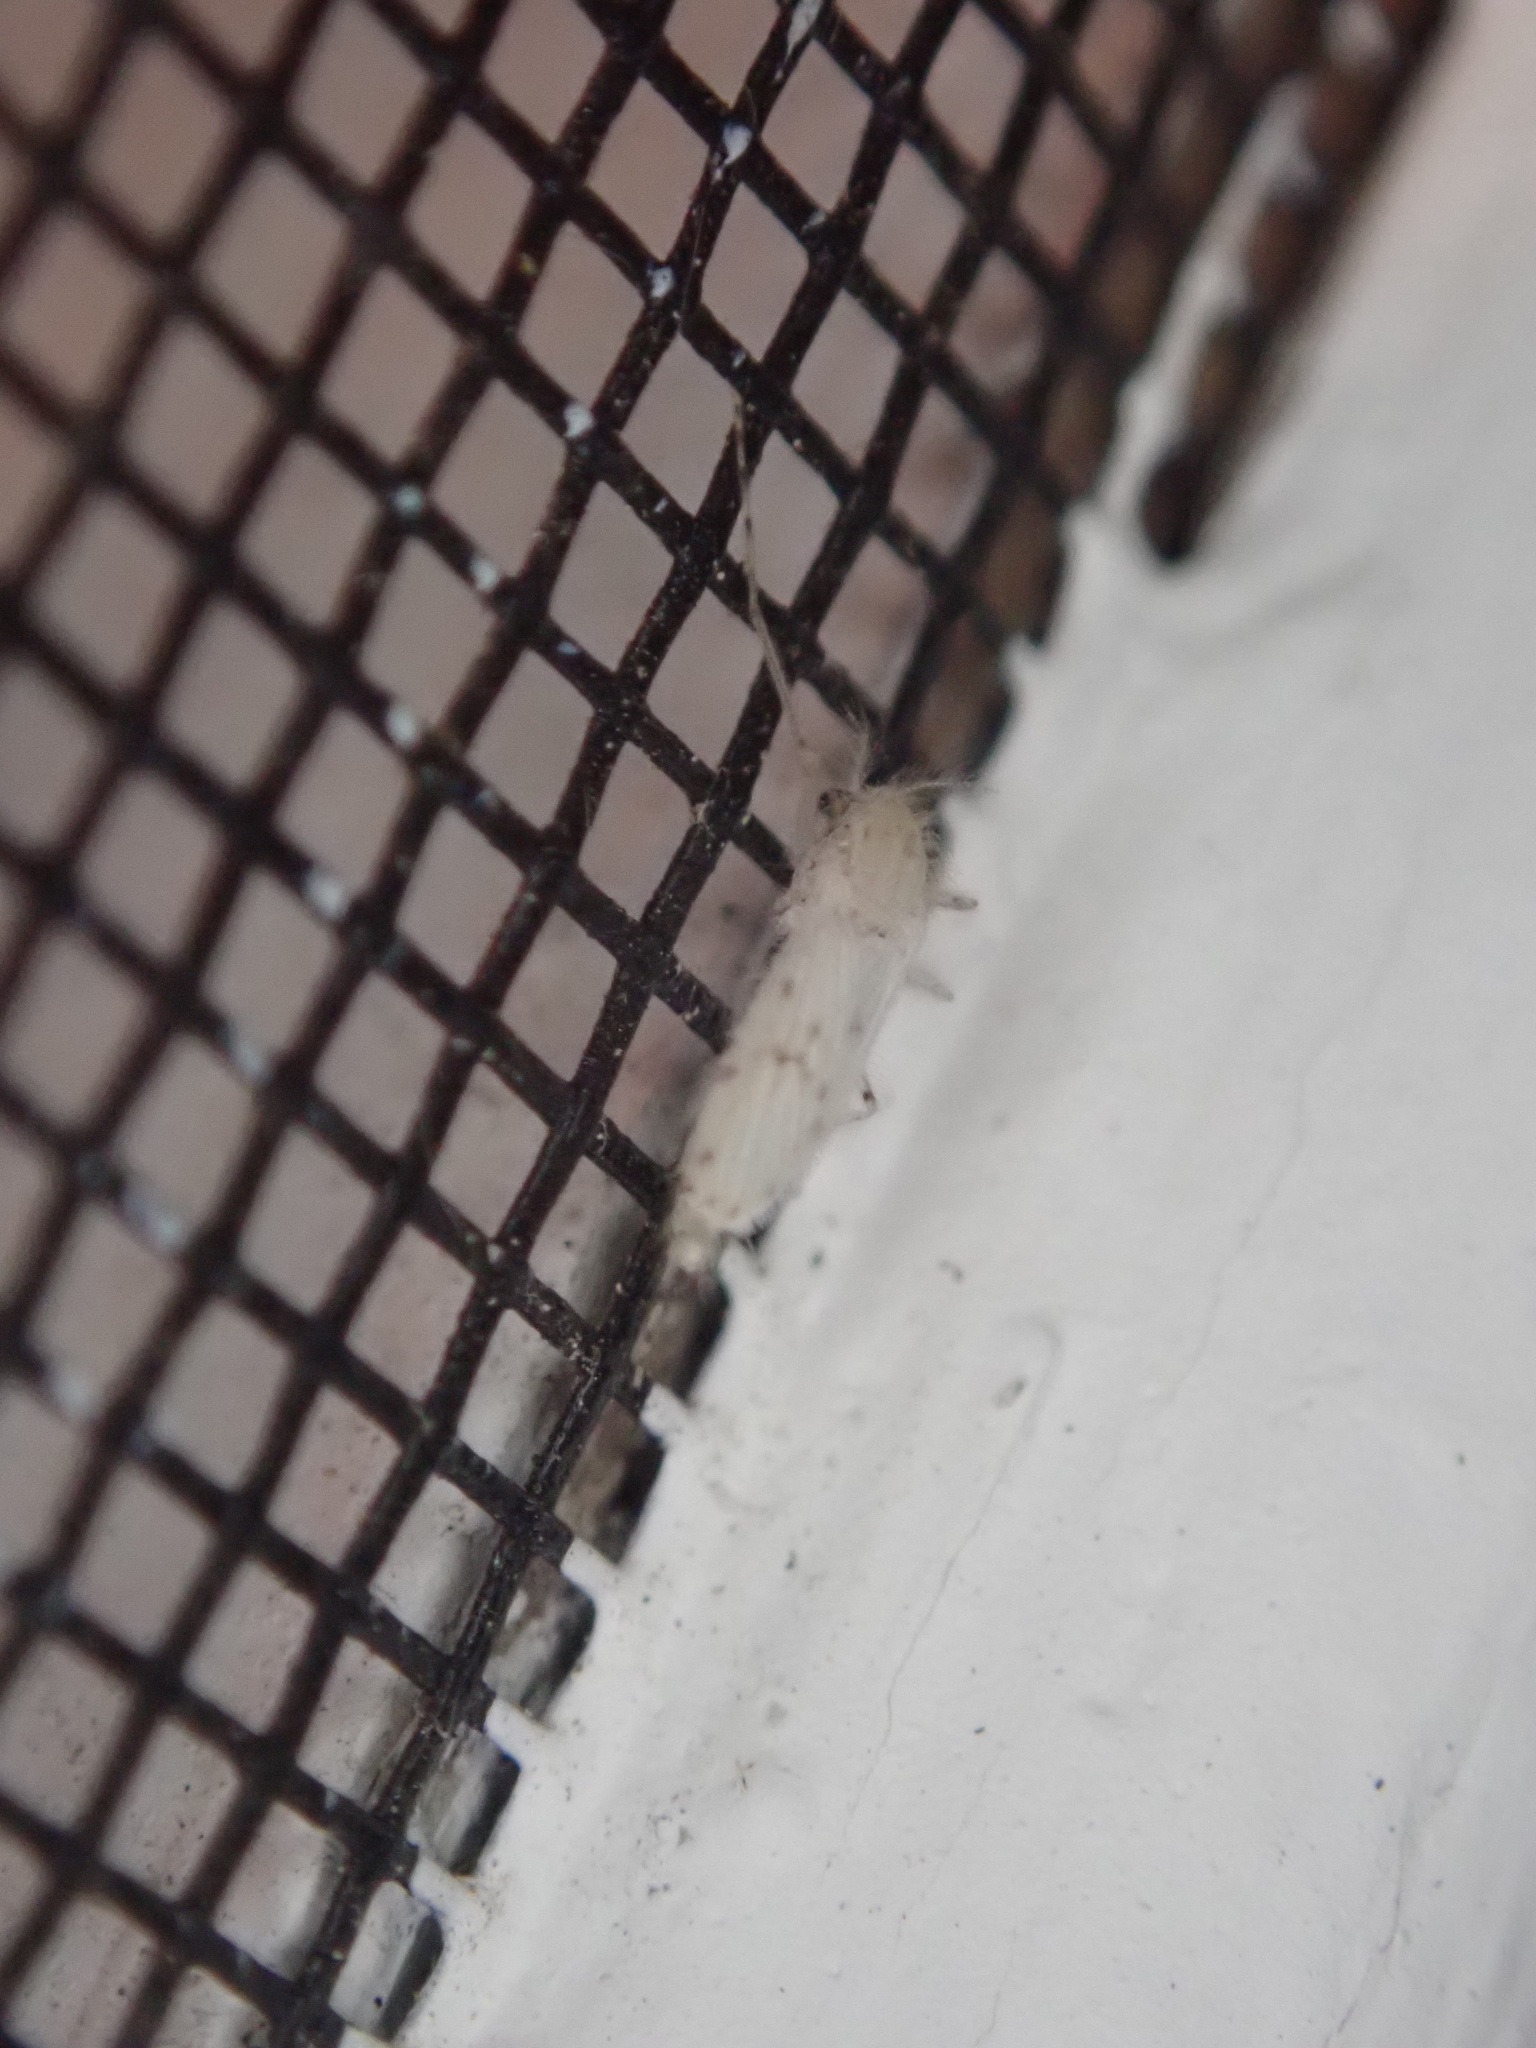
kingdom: Animalia
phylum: Arthropoda
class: Insecta
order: Diptera
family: Chaoboridae
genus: Chaoborus
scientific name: Chaoborus albatus
